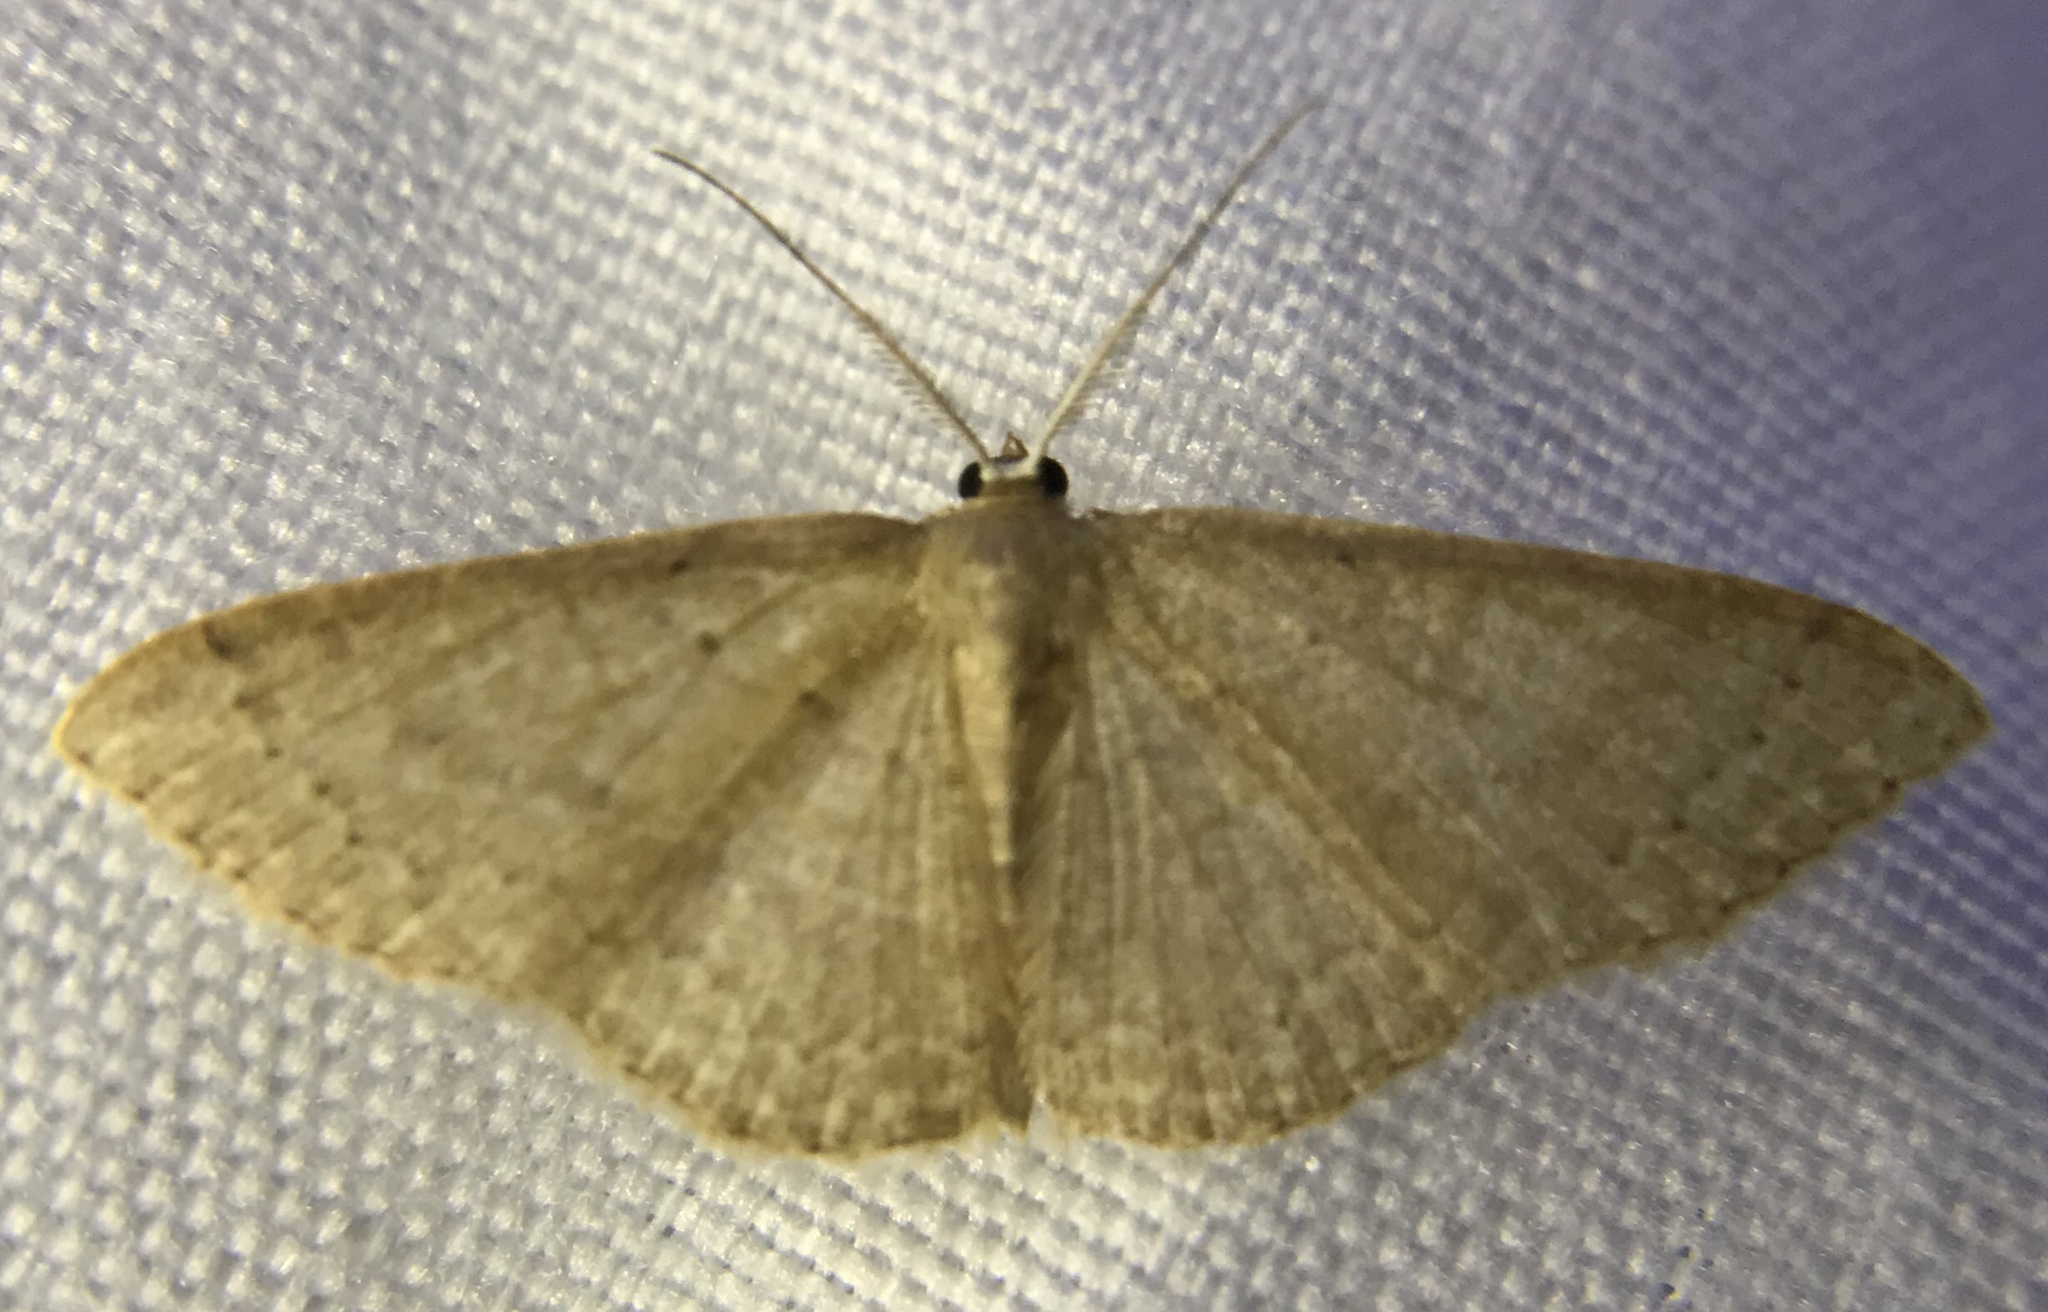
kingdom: Animalia
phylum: Arthropoda
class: Insecta
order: Lepidoptera
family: Geometridae
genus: Pleuroprucha
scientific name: Pleuroprucha insulsaria
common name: Common tan wave
